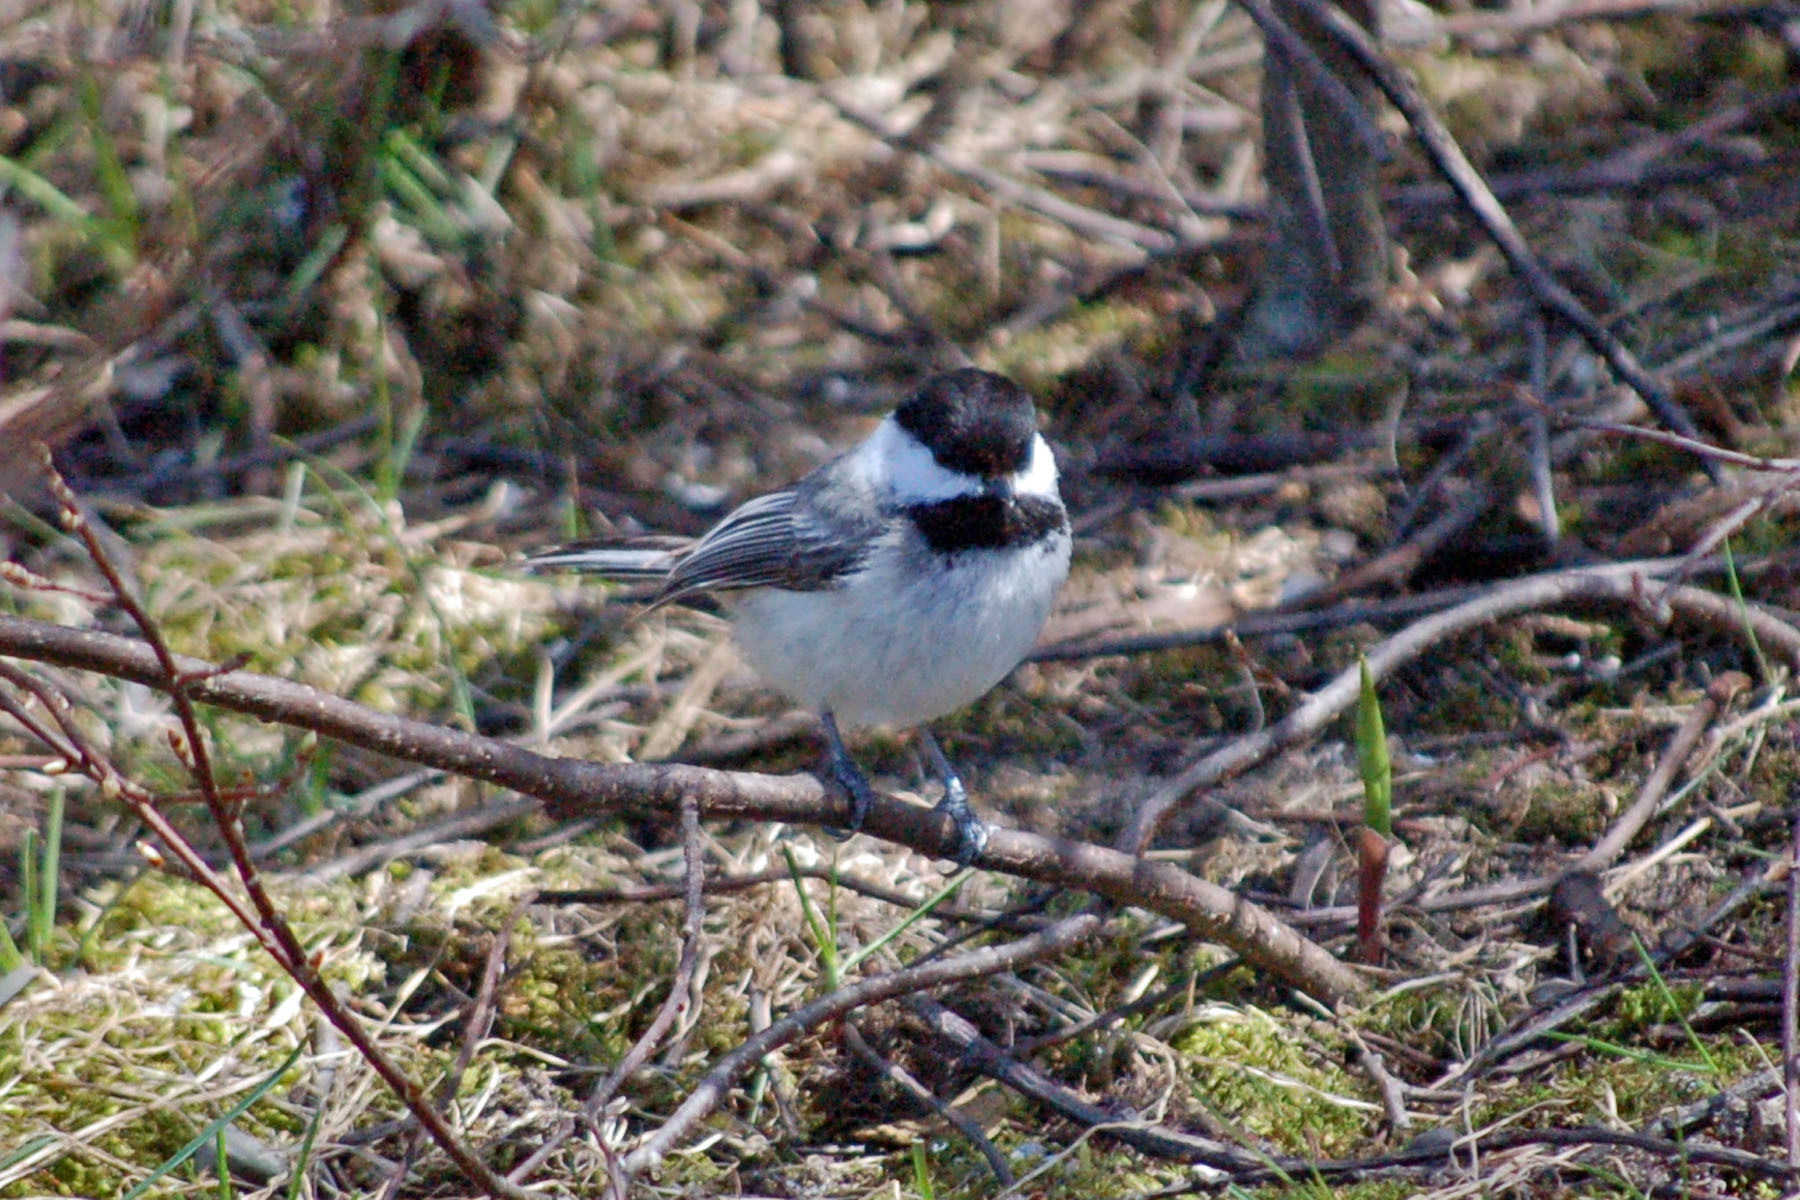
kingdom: Animalia
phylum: Chordata
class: Aves
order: Passeriformes
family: Paridae
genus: Poecile
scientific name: Poecile atricapillus
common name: Black-capped chickadee
